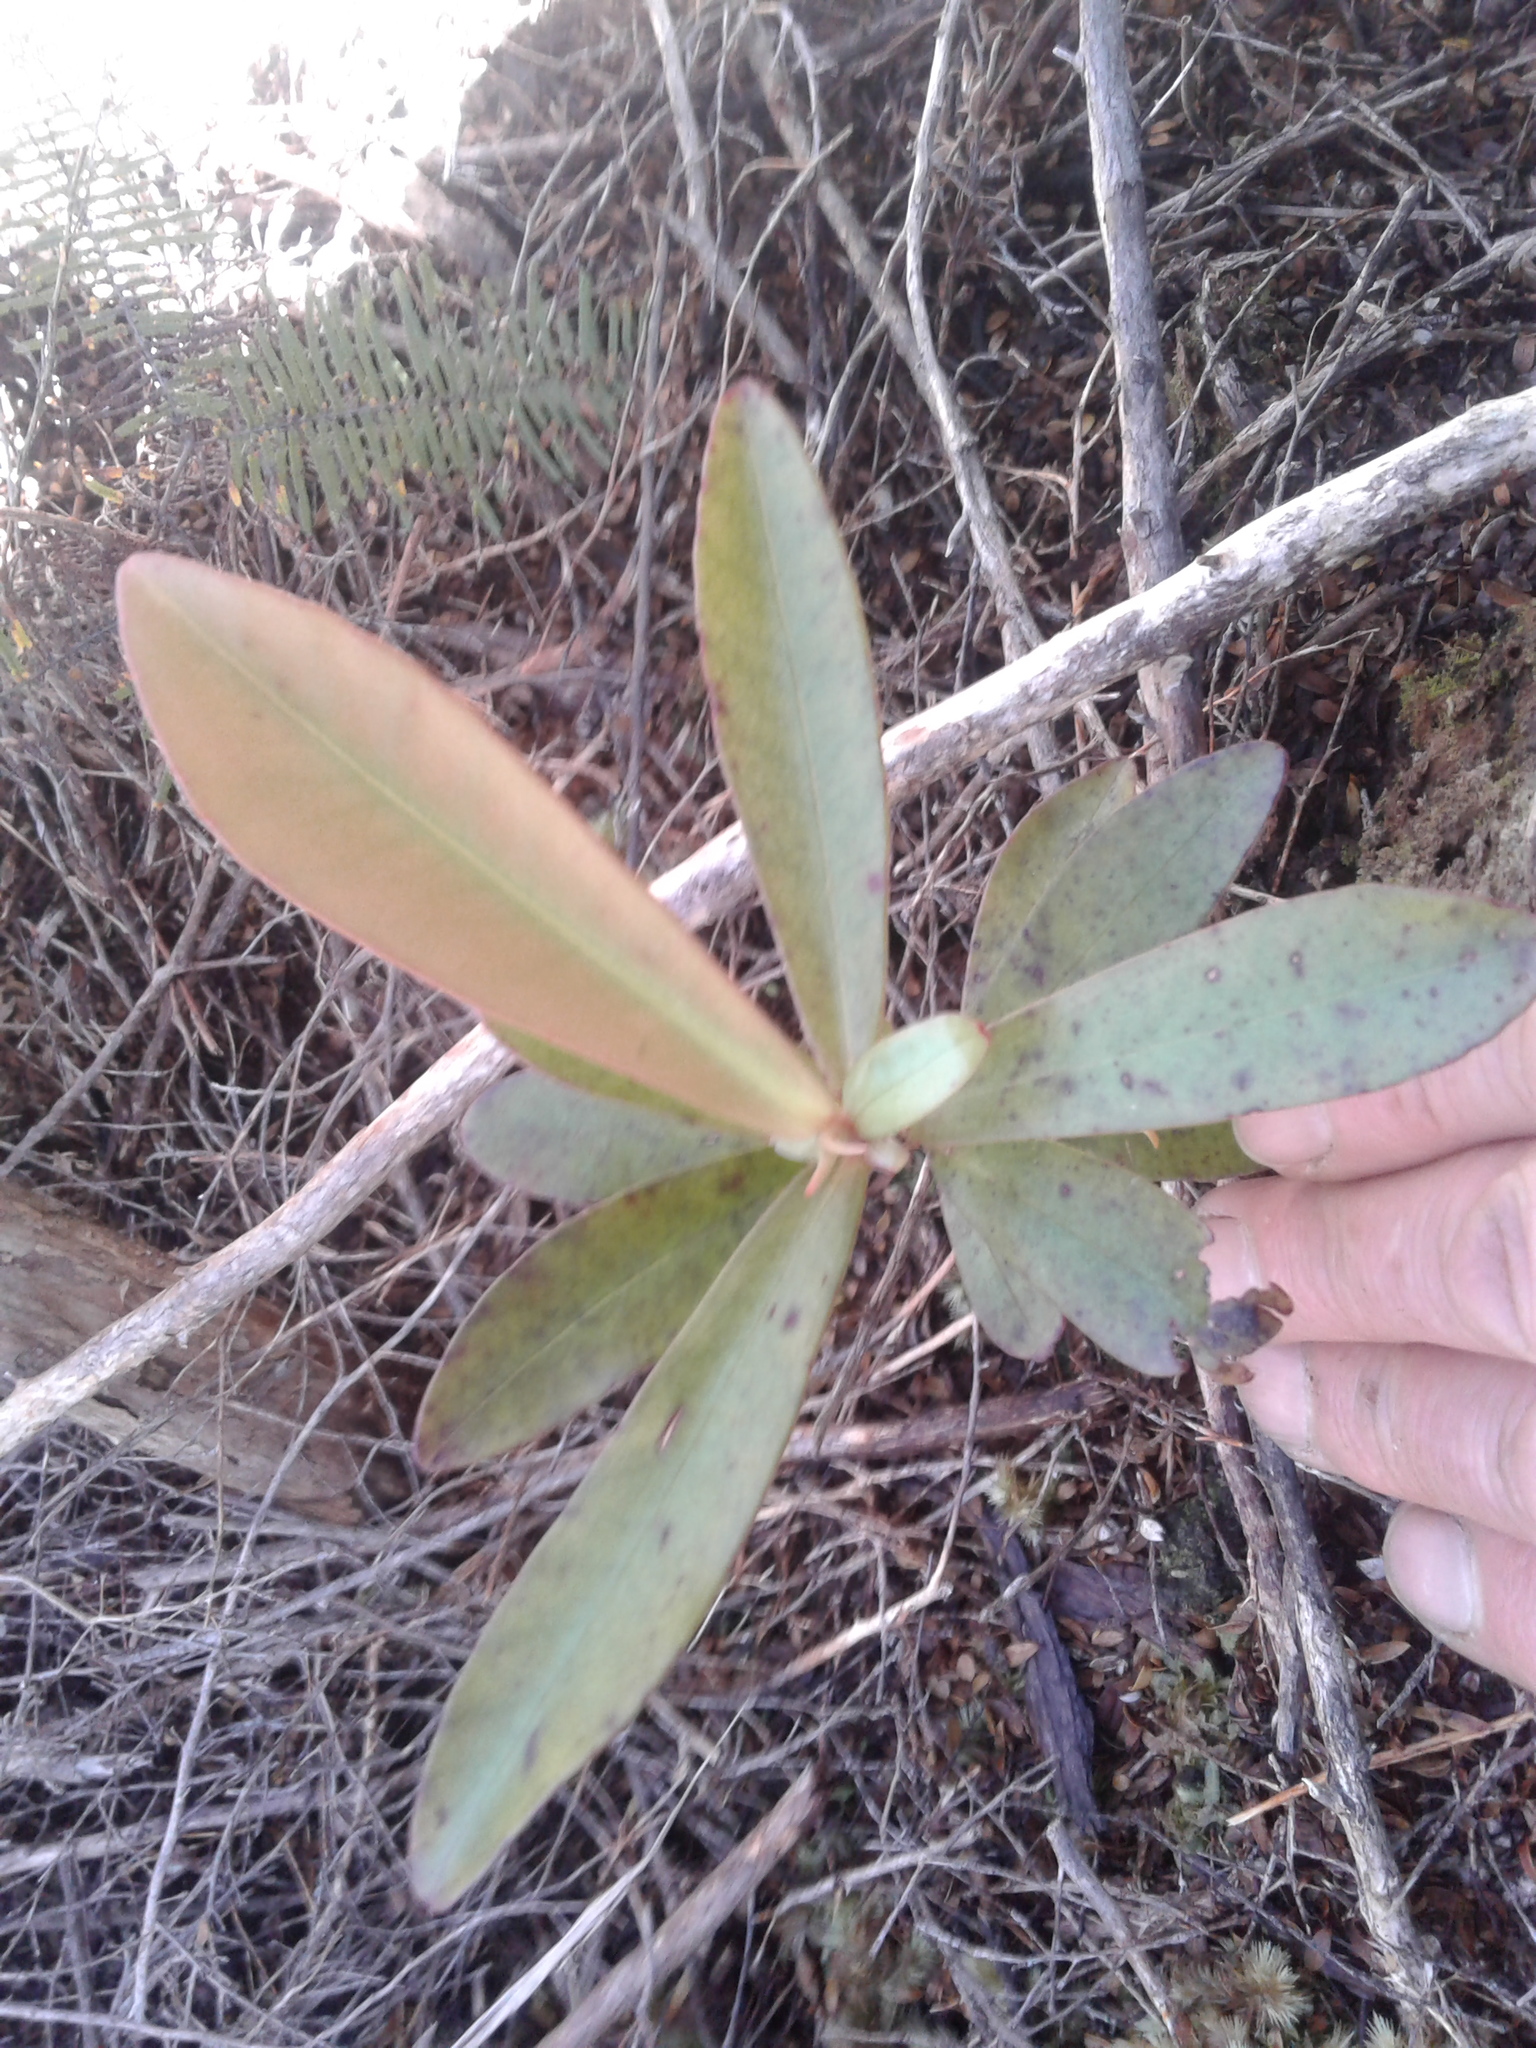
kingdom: Plantae
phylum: Tracheophyta
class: Magnoliopsida
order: Ericales
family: Primulaceae
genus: Myrsine
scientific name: Myrsine salicina
